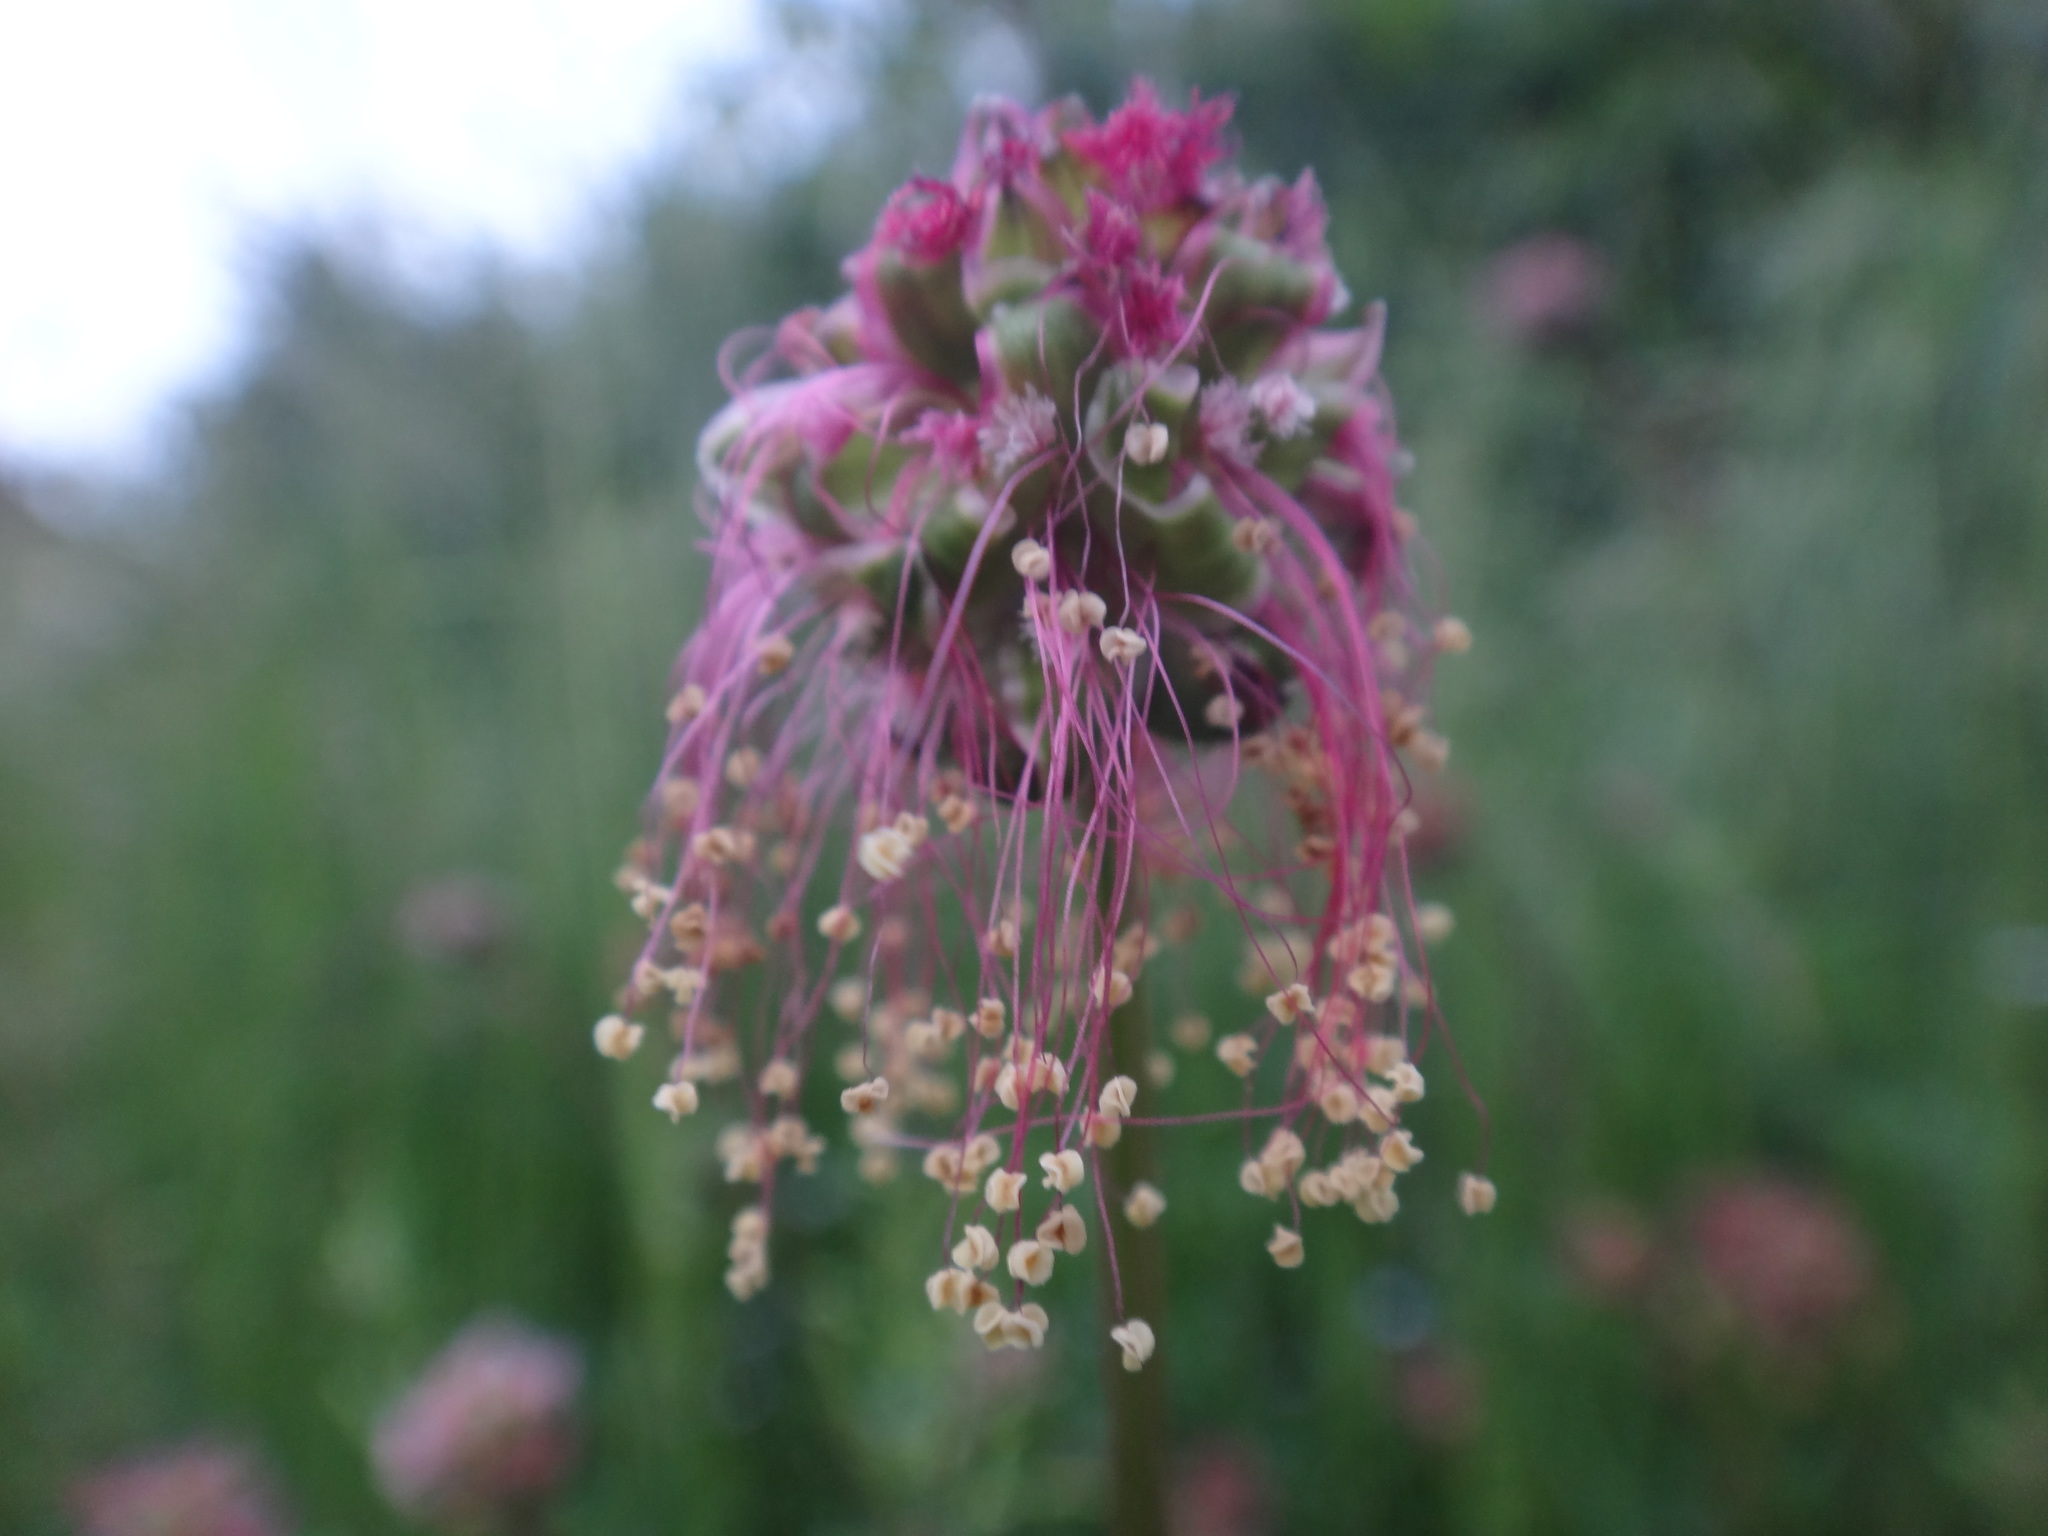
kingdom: Plantae
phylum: Tracheophyta
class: Magnoliopsida
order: Rosales
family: Rosaceae
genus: Poterium
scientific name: Poterium sanguisorba
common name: Salad burnet
